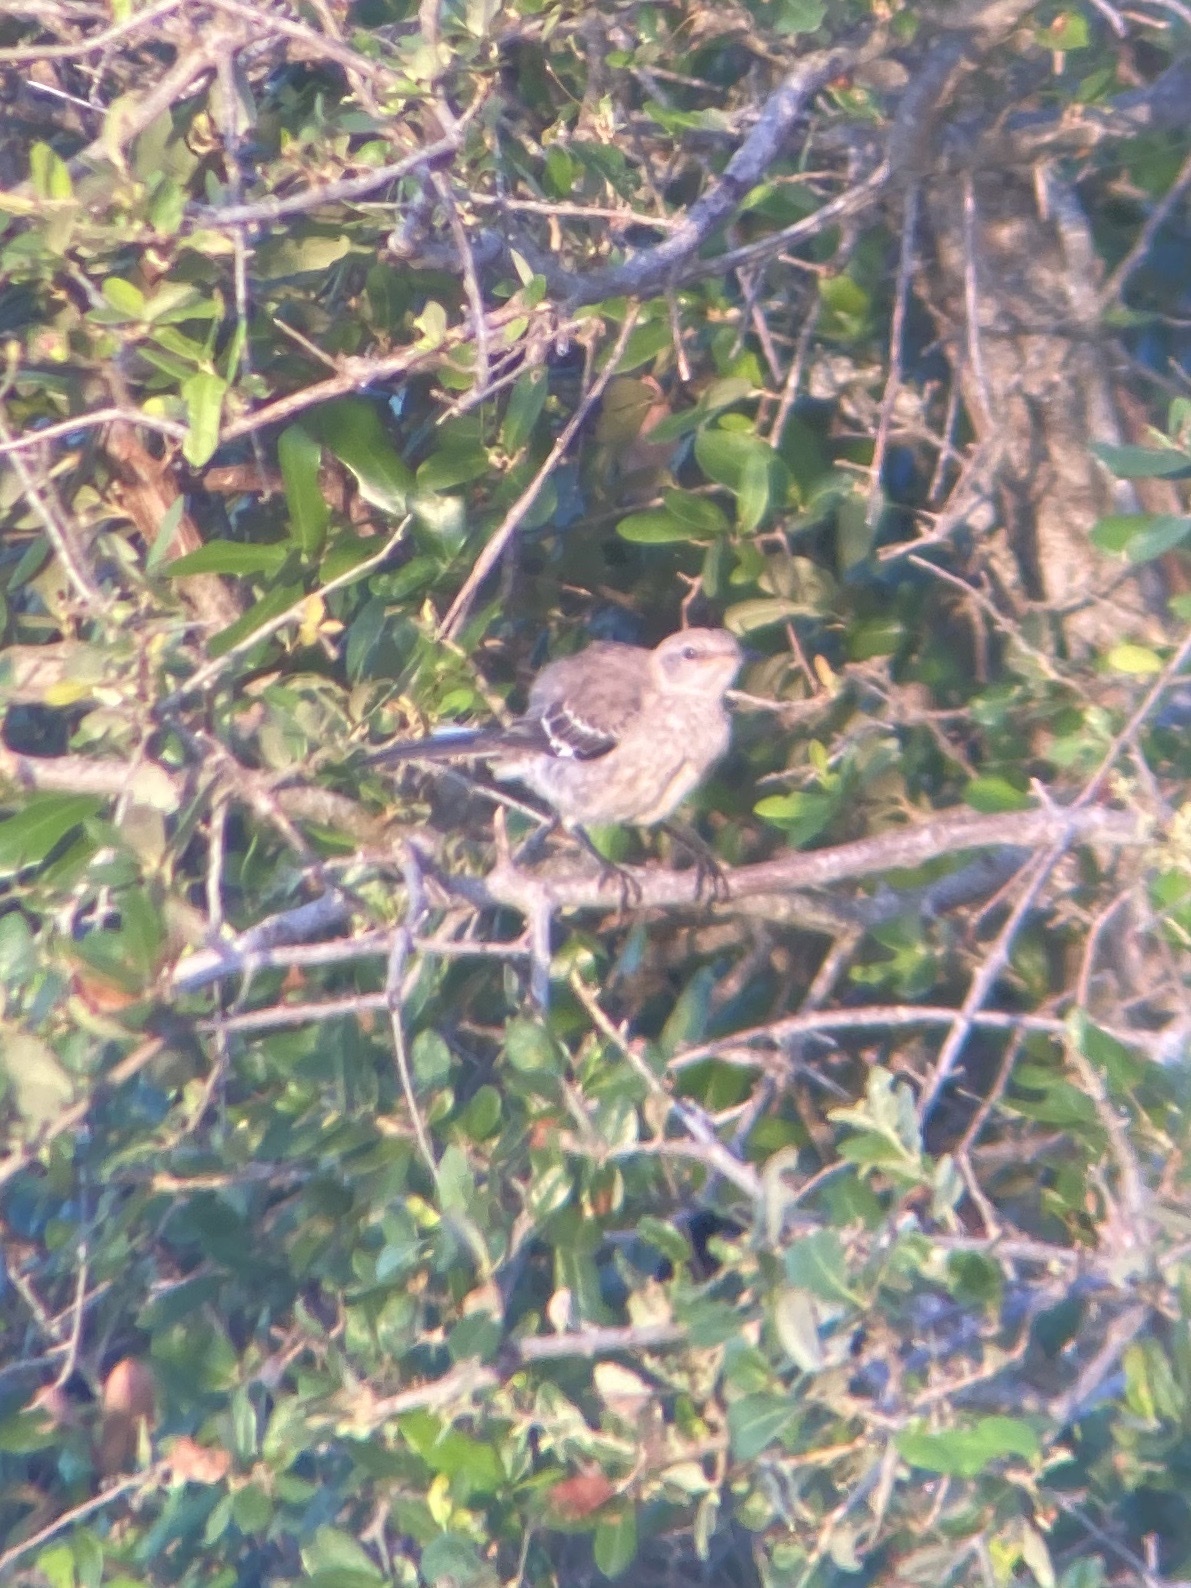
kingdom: Animalia
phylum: Chordata
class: Aves
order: Passeriformes
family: Mimidae
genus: Mimus
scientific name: Mimus polyglottos
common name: Northern mockingbird
